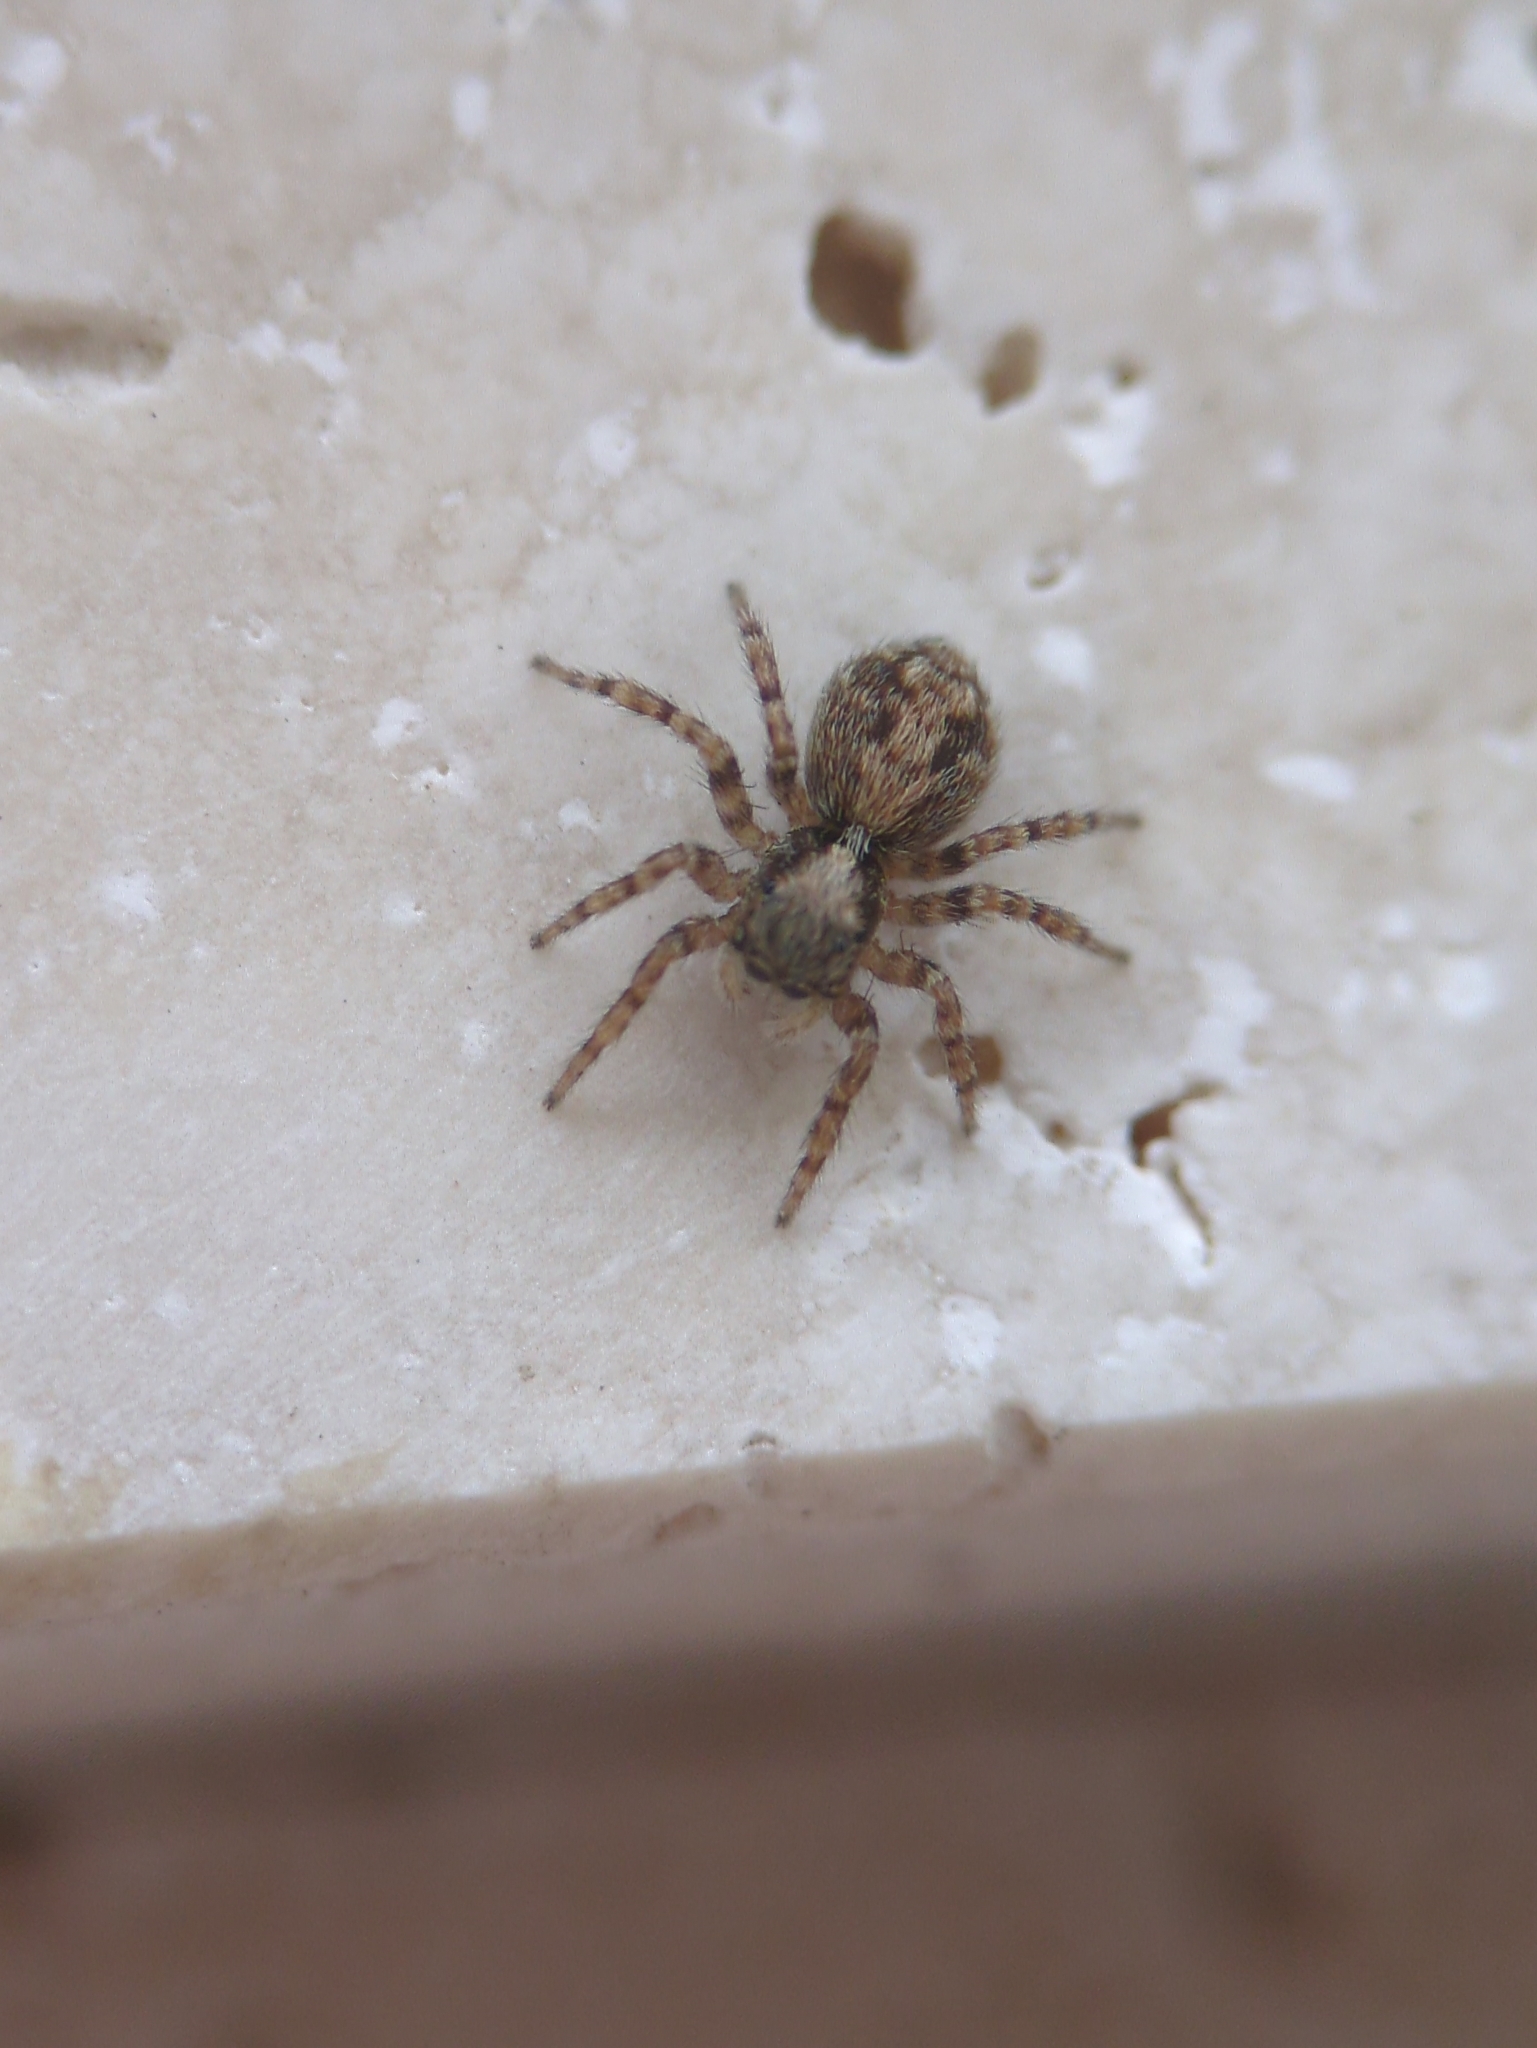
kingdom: Animalia
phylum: Arthropoda
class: Arachnida
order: Araneae
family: Salticidae
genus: Pseudeuophrys
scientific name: Pseudeuophrys lanigera
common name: Jumping spider
